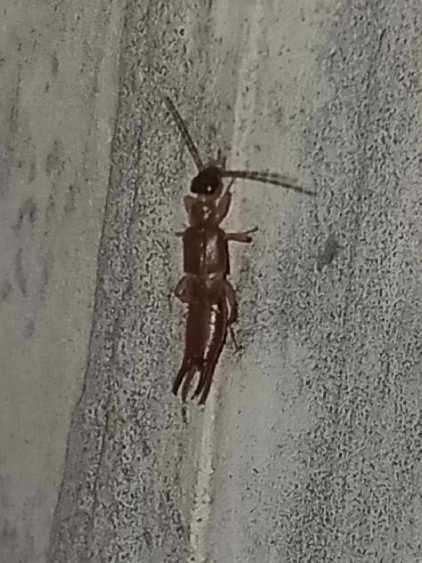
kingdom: Animalia
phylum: Arthropoda
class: Insecta
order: Dermaptera
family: Spongiphoridae
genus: Labia
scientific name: Labia minor
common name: Lesser earwig
